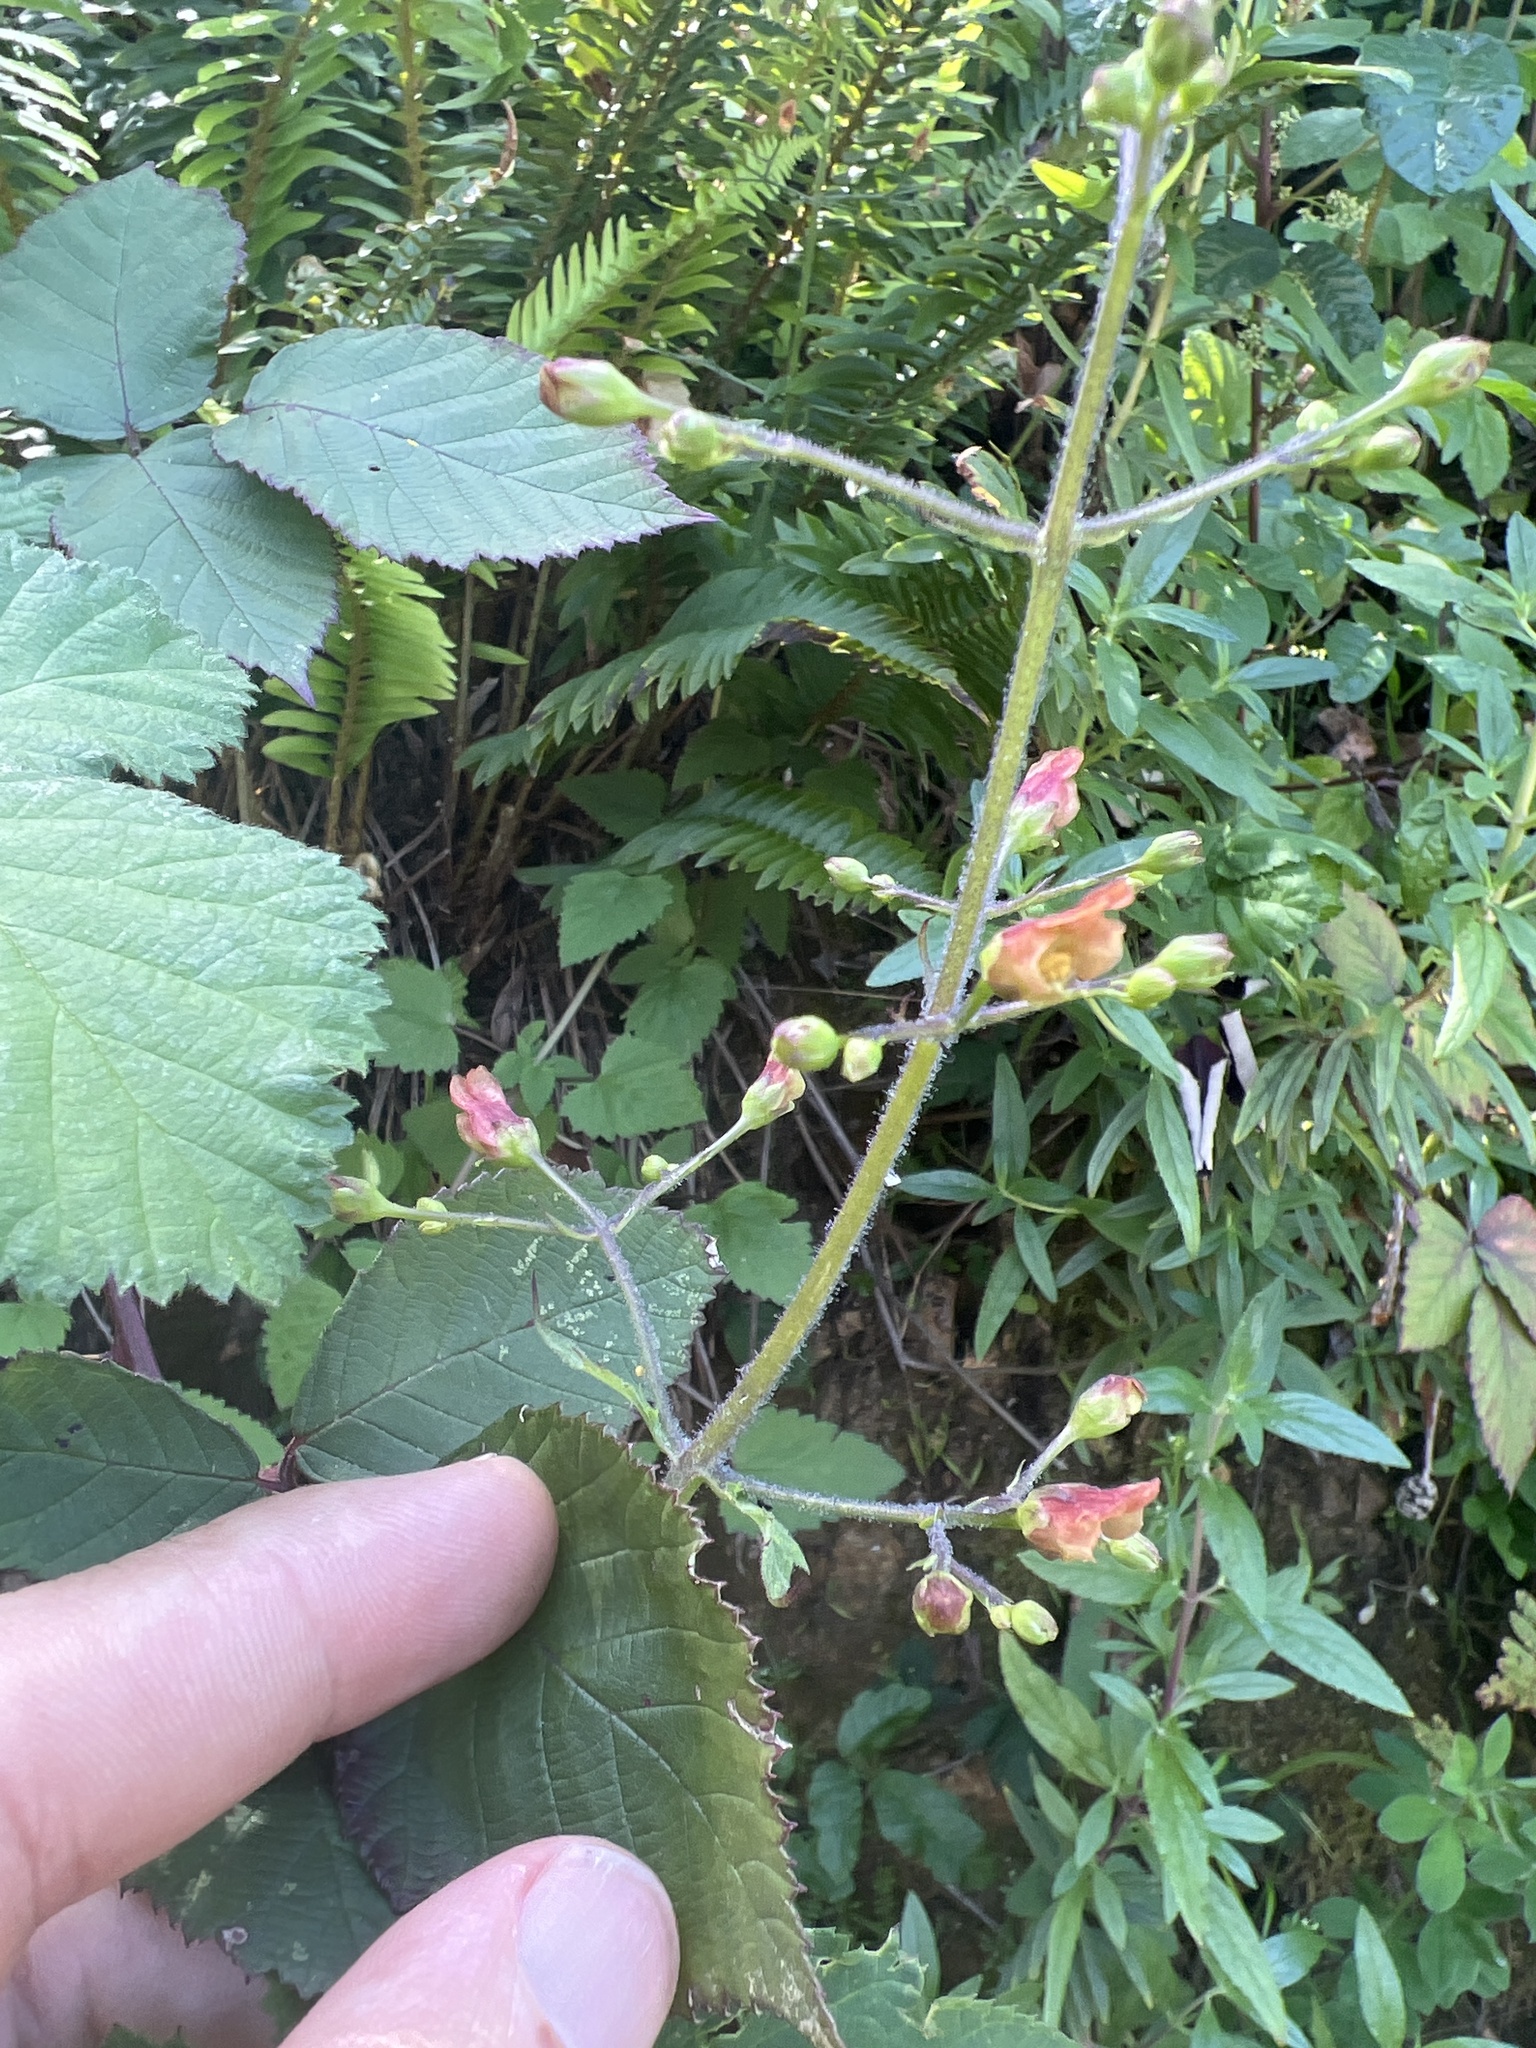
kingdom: Plantae
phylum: Tracheophyta
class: Magnoliopsida
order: Lamiales
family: Scrophulariaceae
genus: Scrophularia
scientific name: Scrophularia californica
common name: California figwort
